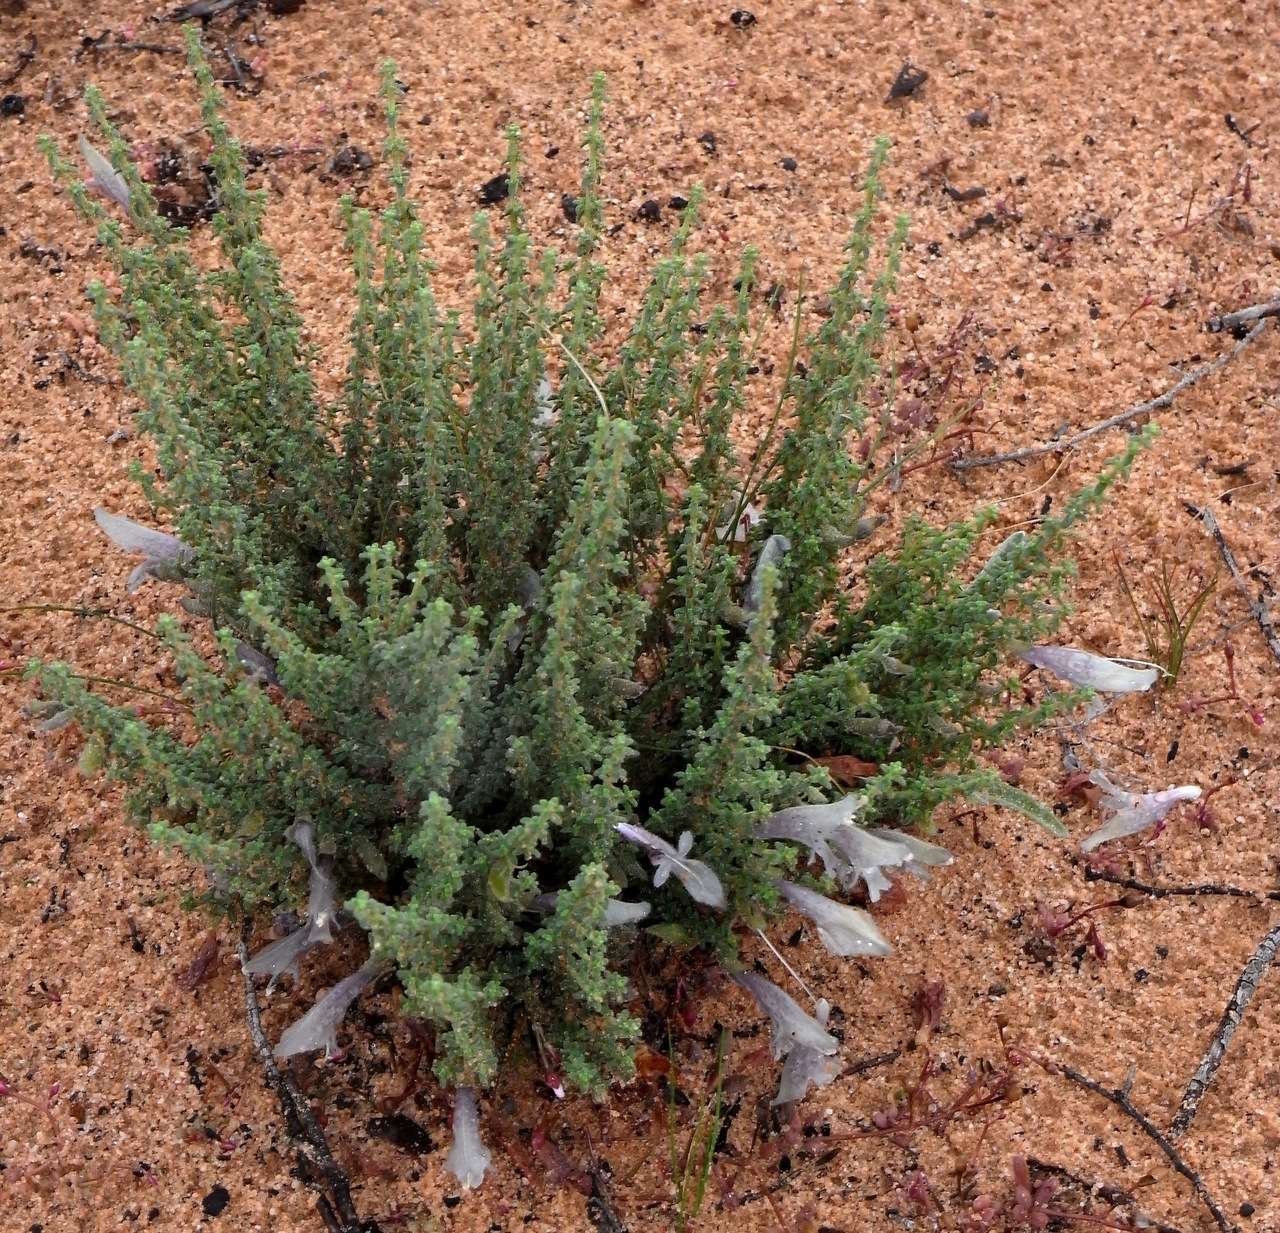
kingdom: Plantae
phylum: Tracheophyta
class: Magnoliopsida
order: Lamiales
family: Lamiaceae
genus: Prostanthera
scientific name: Prostanthera microphylla
